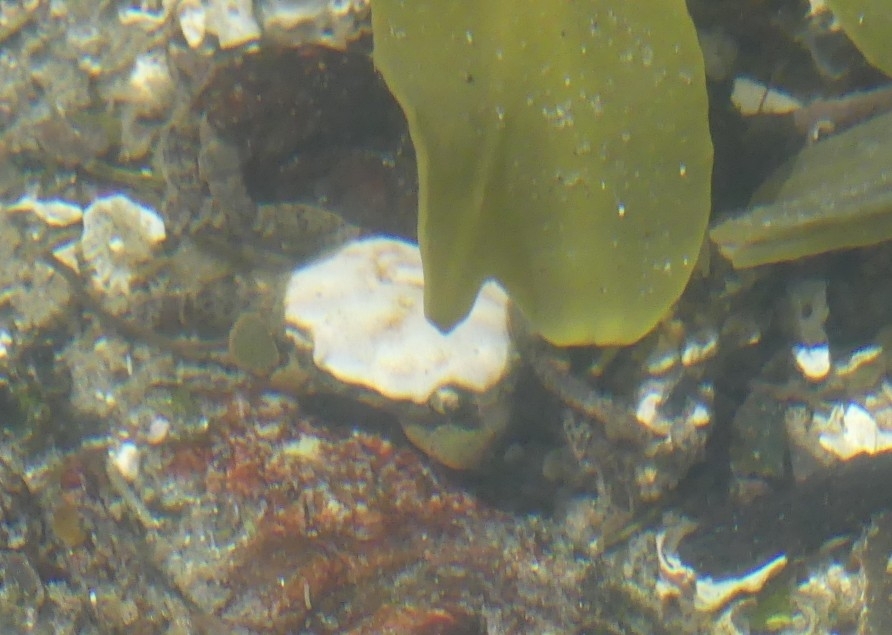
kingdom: Animalia
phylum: Arthropoda
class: Malacostraca
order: Decapoda
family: Varunidae
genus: Hemigrapsus
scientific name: Hemigrapsus oregonensis
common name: Yellow shore crab
